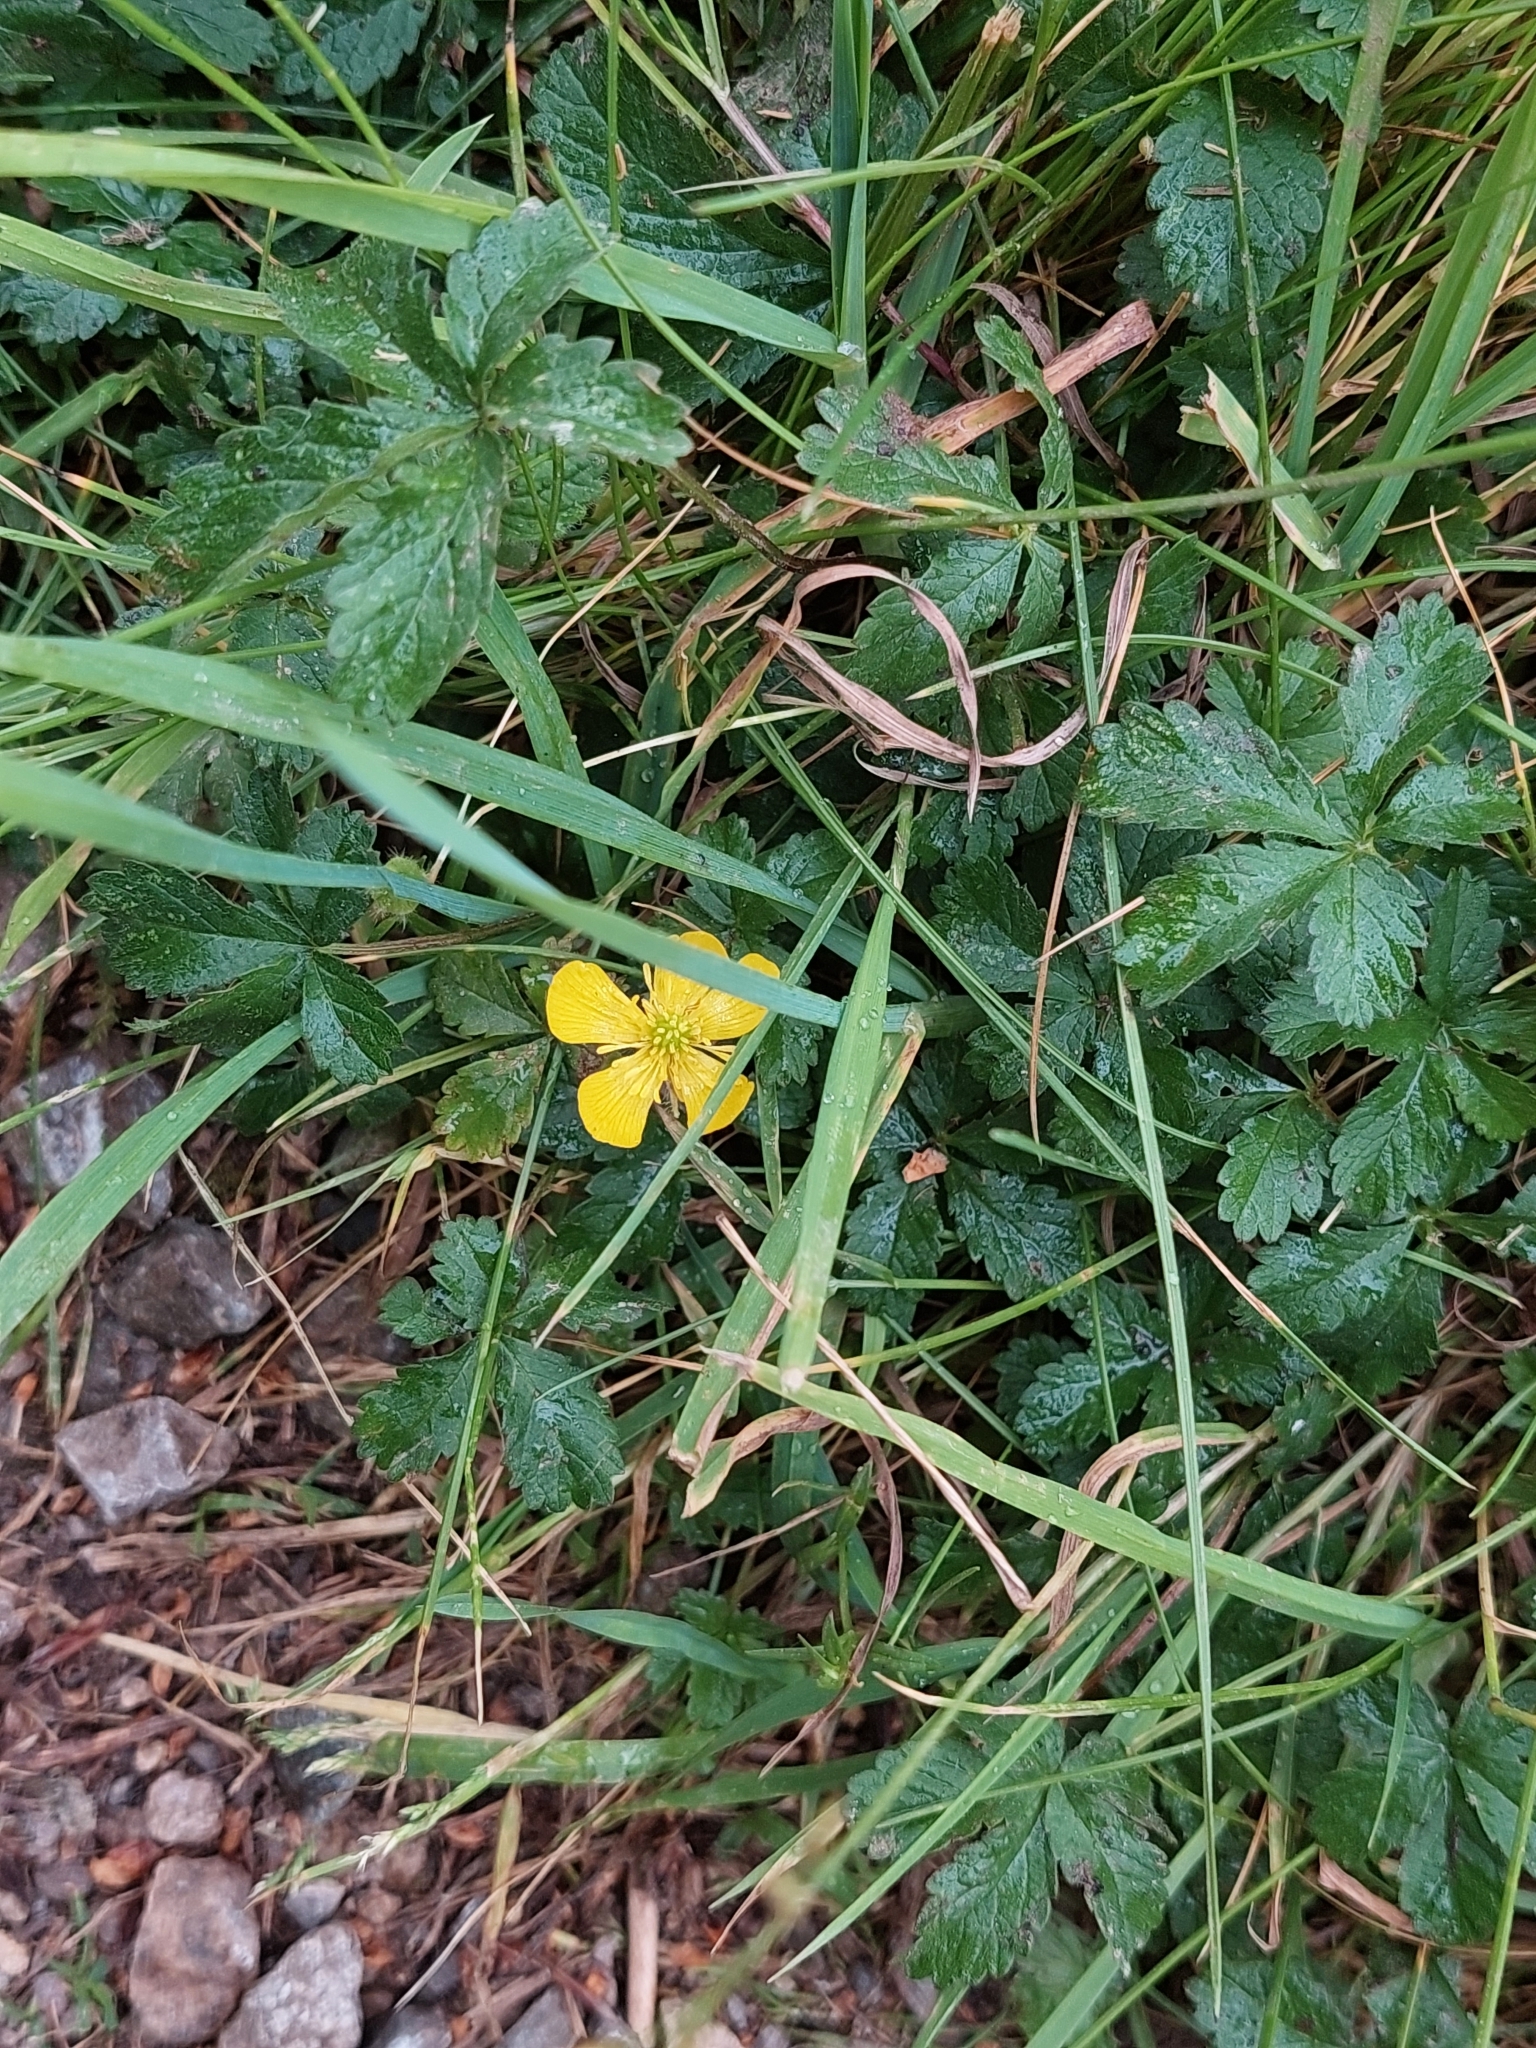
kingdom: Plantae
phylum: Tracheophyta
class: Magnoliopsida
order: Rosales
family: Rosaceae
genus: Potentilla
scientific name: Potentilla reptans
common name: Creeping cinquefoil
